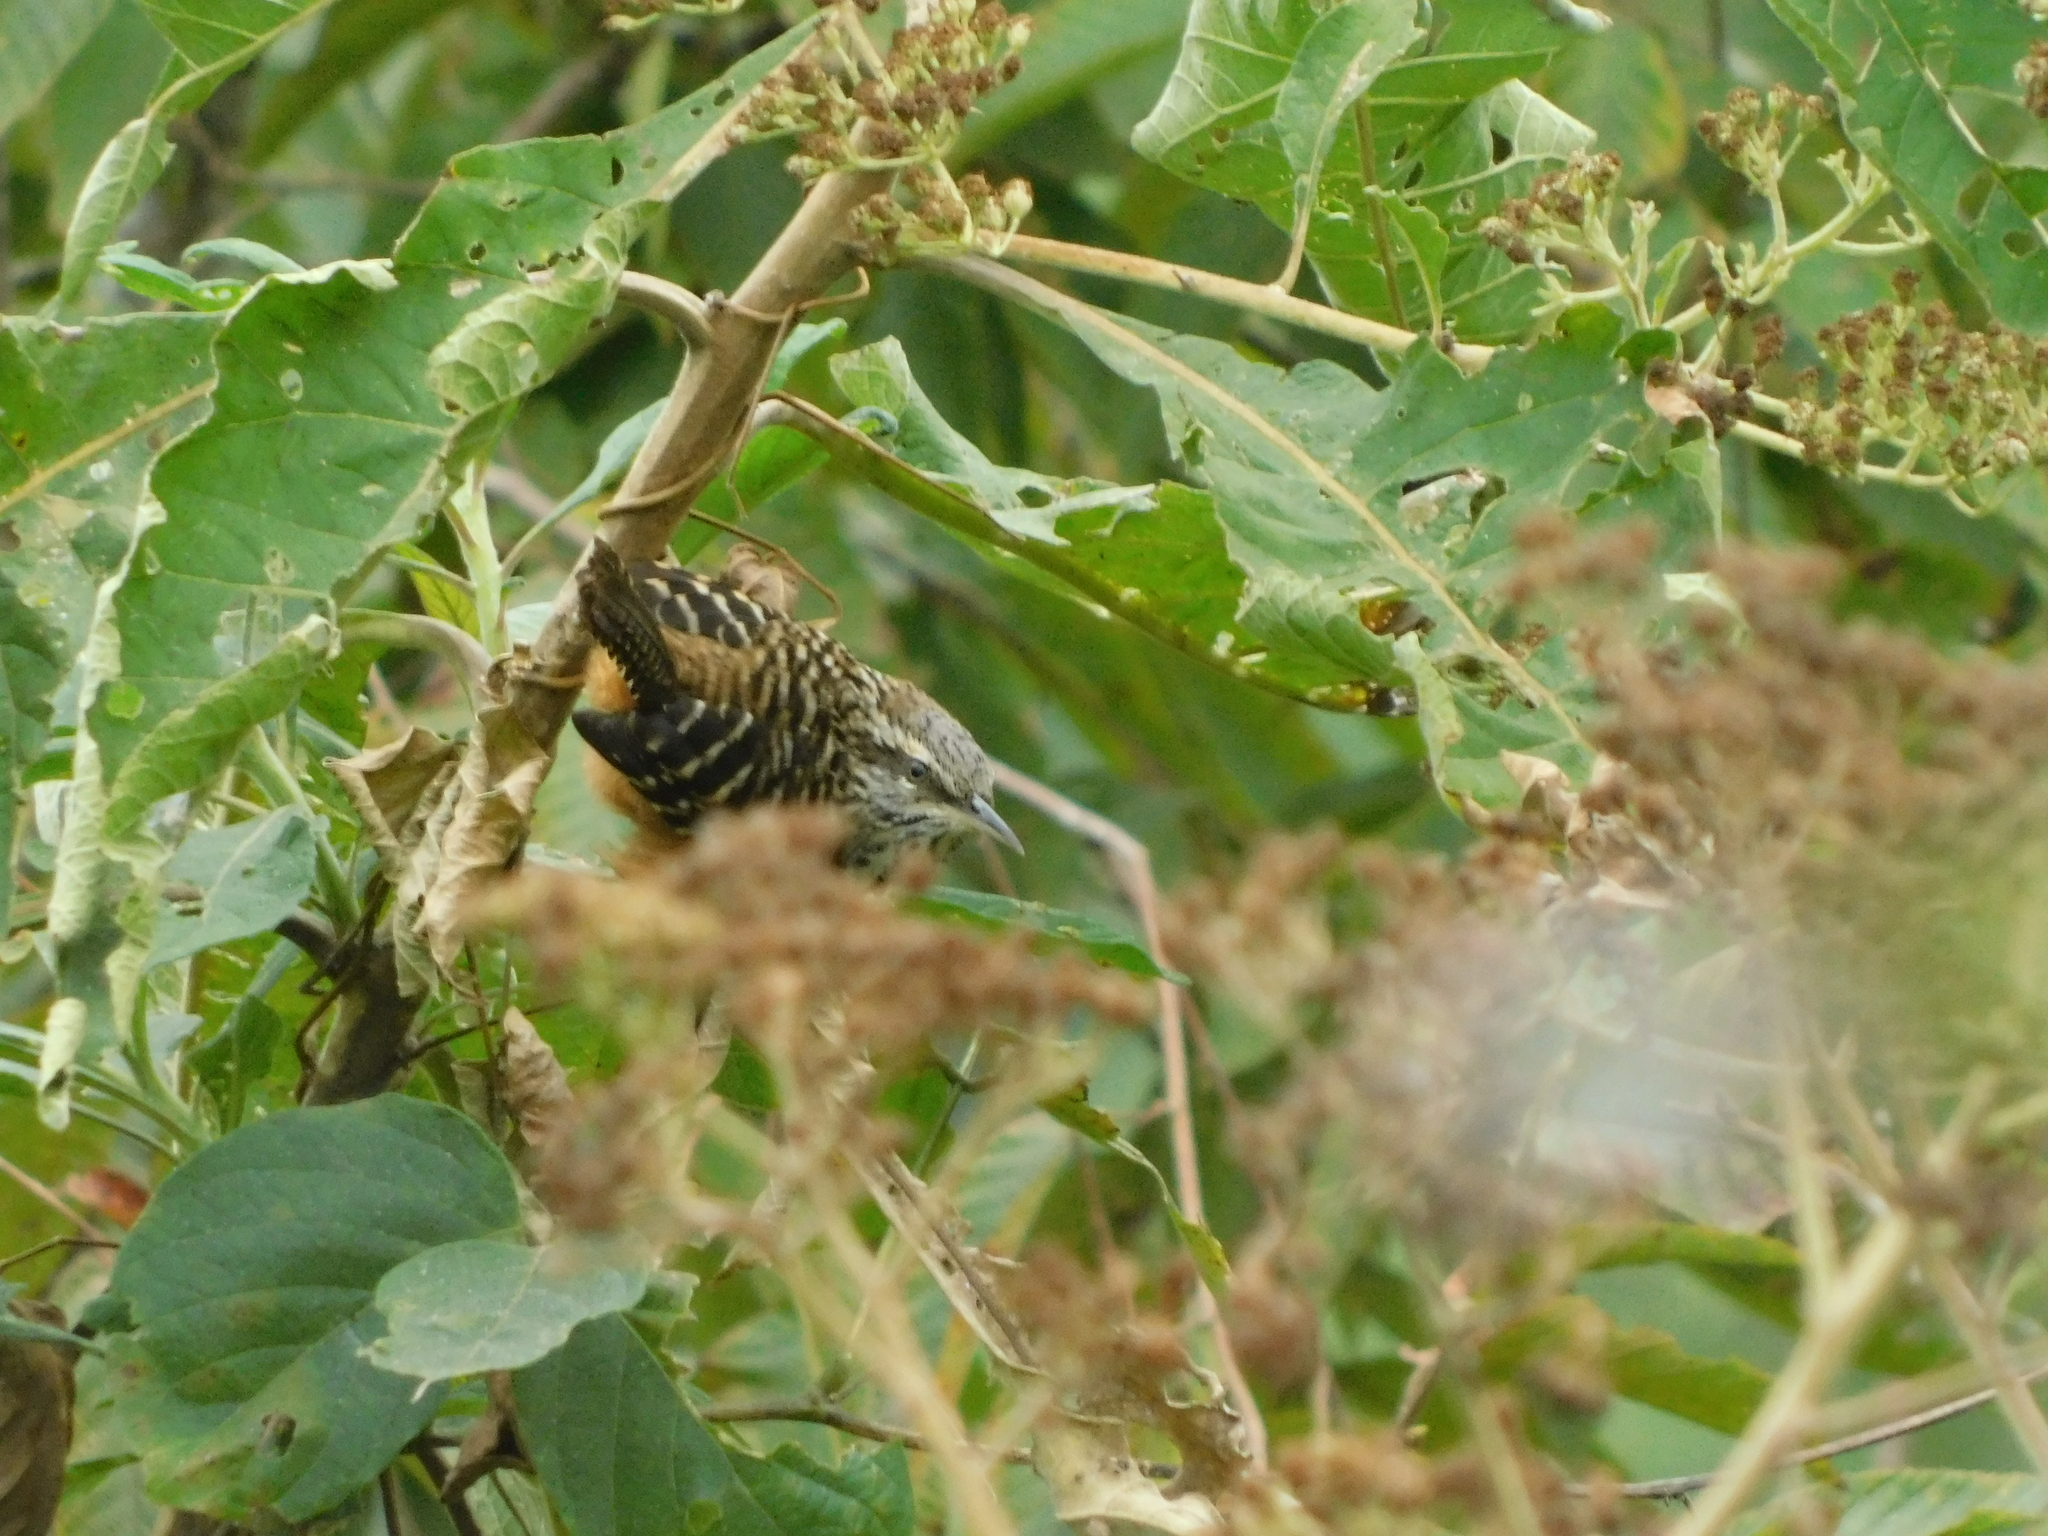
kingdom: Animalia
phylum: Chordata
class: Aves
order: Passeriformes
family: Troglodytidae
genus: Campylorhynchus
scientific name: Campylorhynchus zonatus
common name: Band-backed wren
